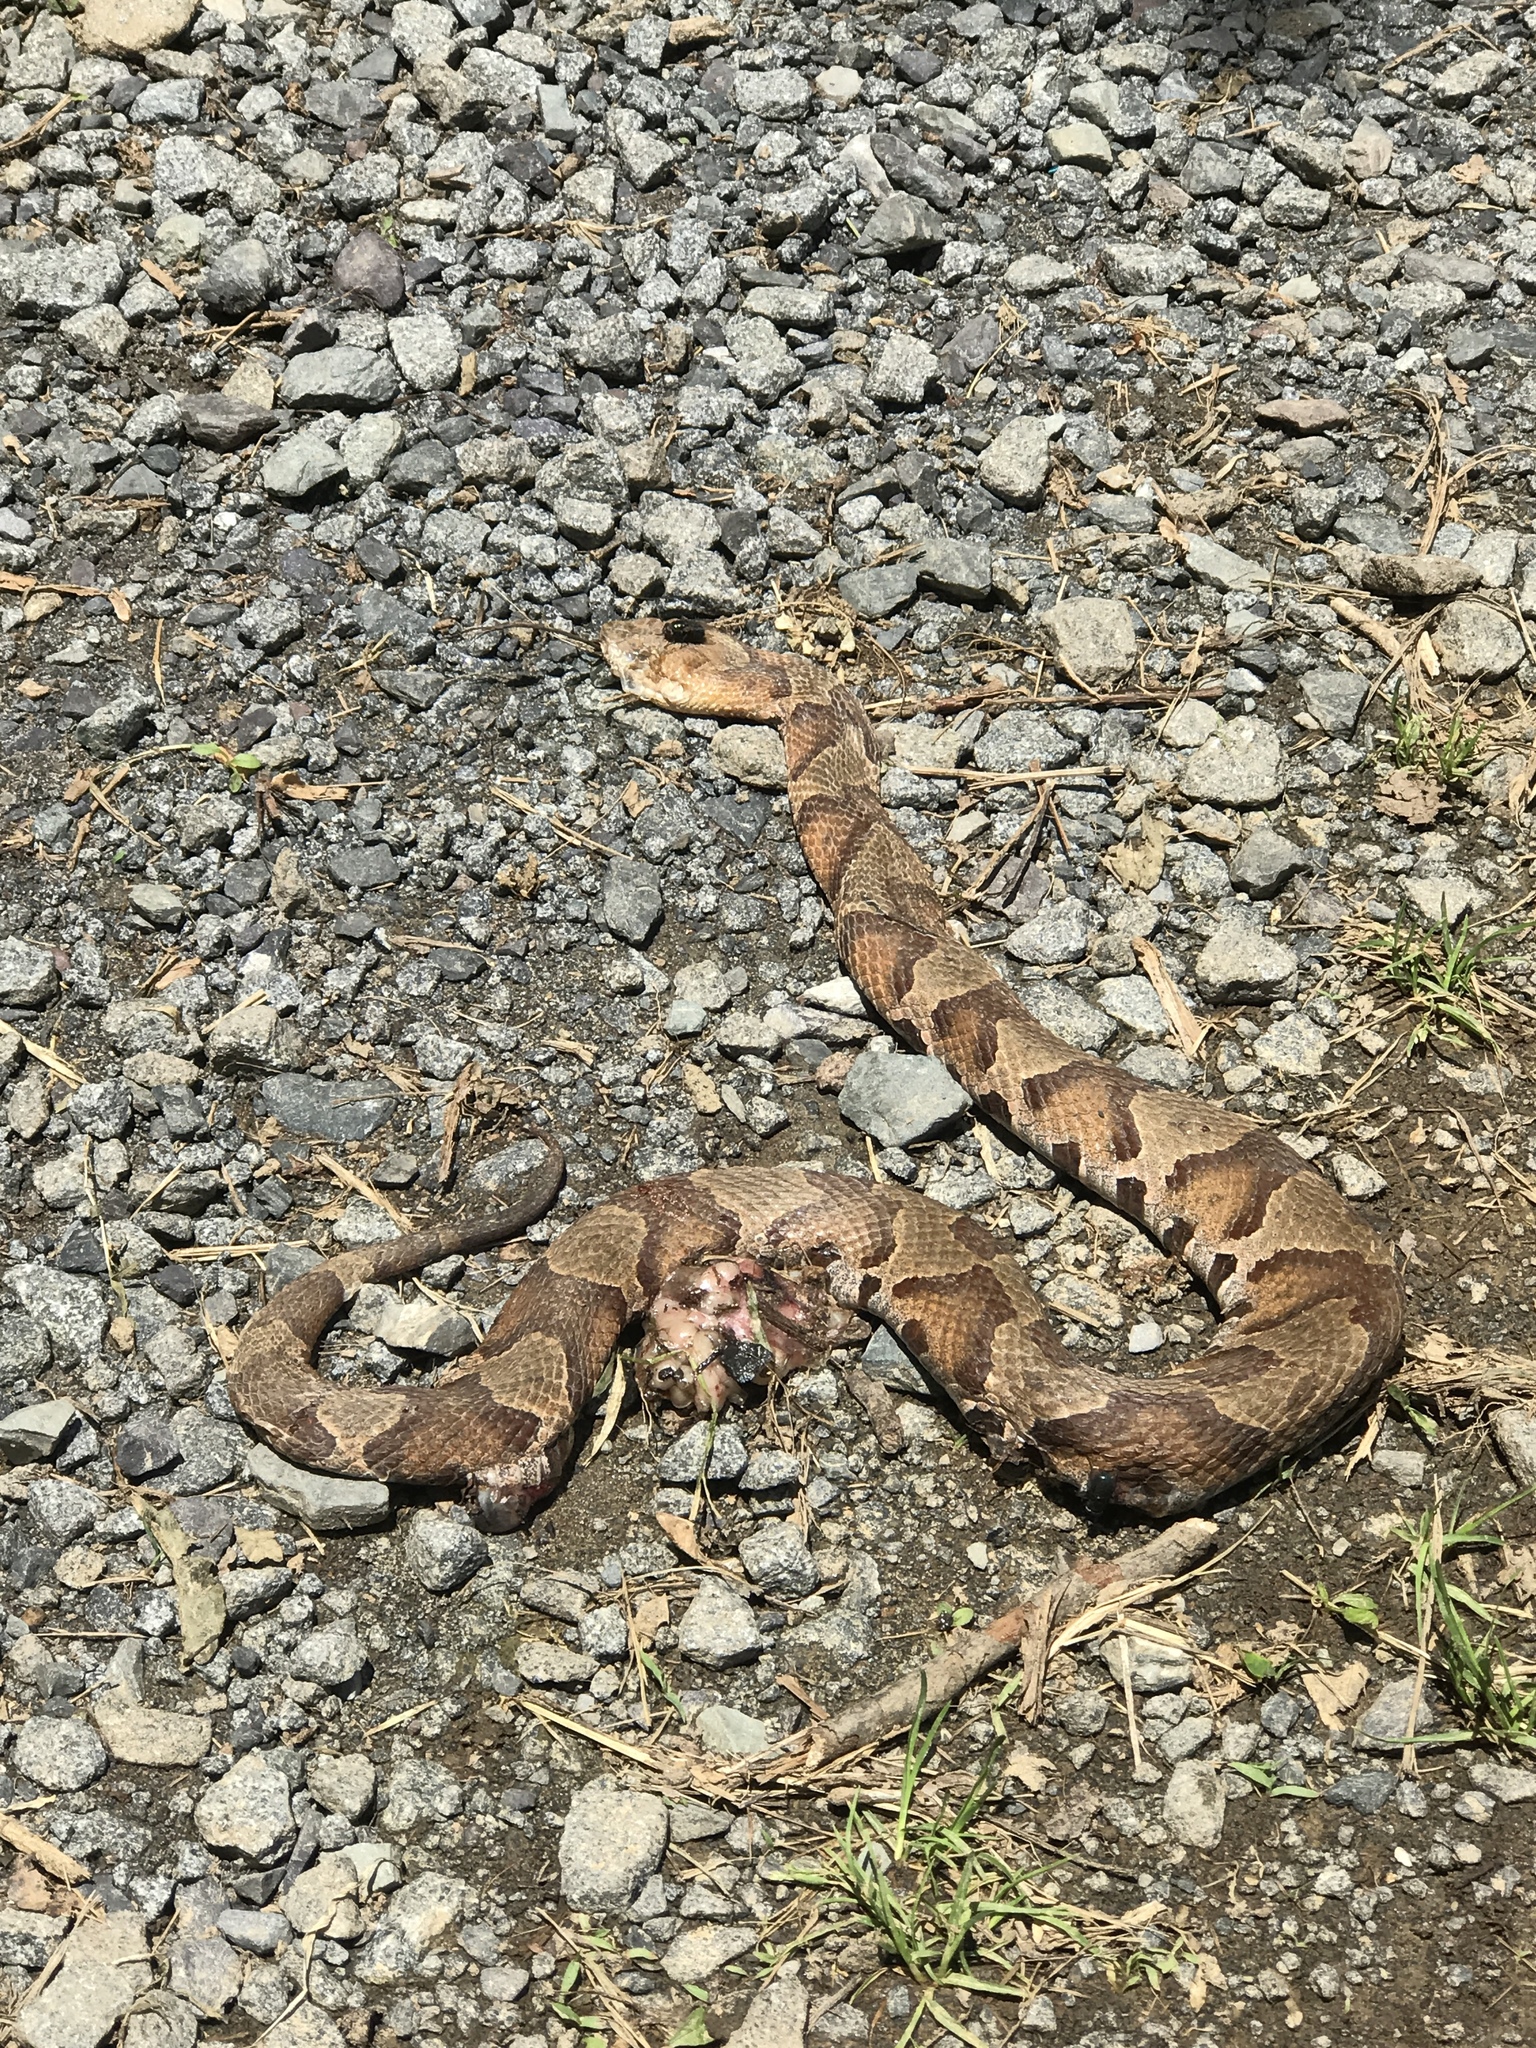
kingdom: Animalia
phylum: Chordata
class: Squamata
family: Viperidae
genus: Agkistrodon
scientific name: Agkistrodon contortrix
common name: Northern copperhead
